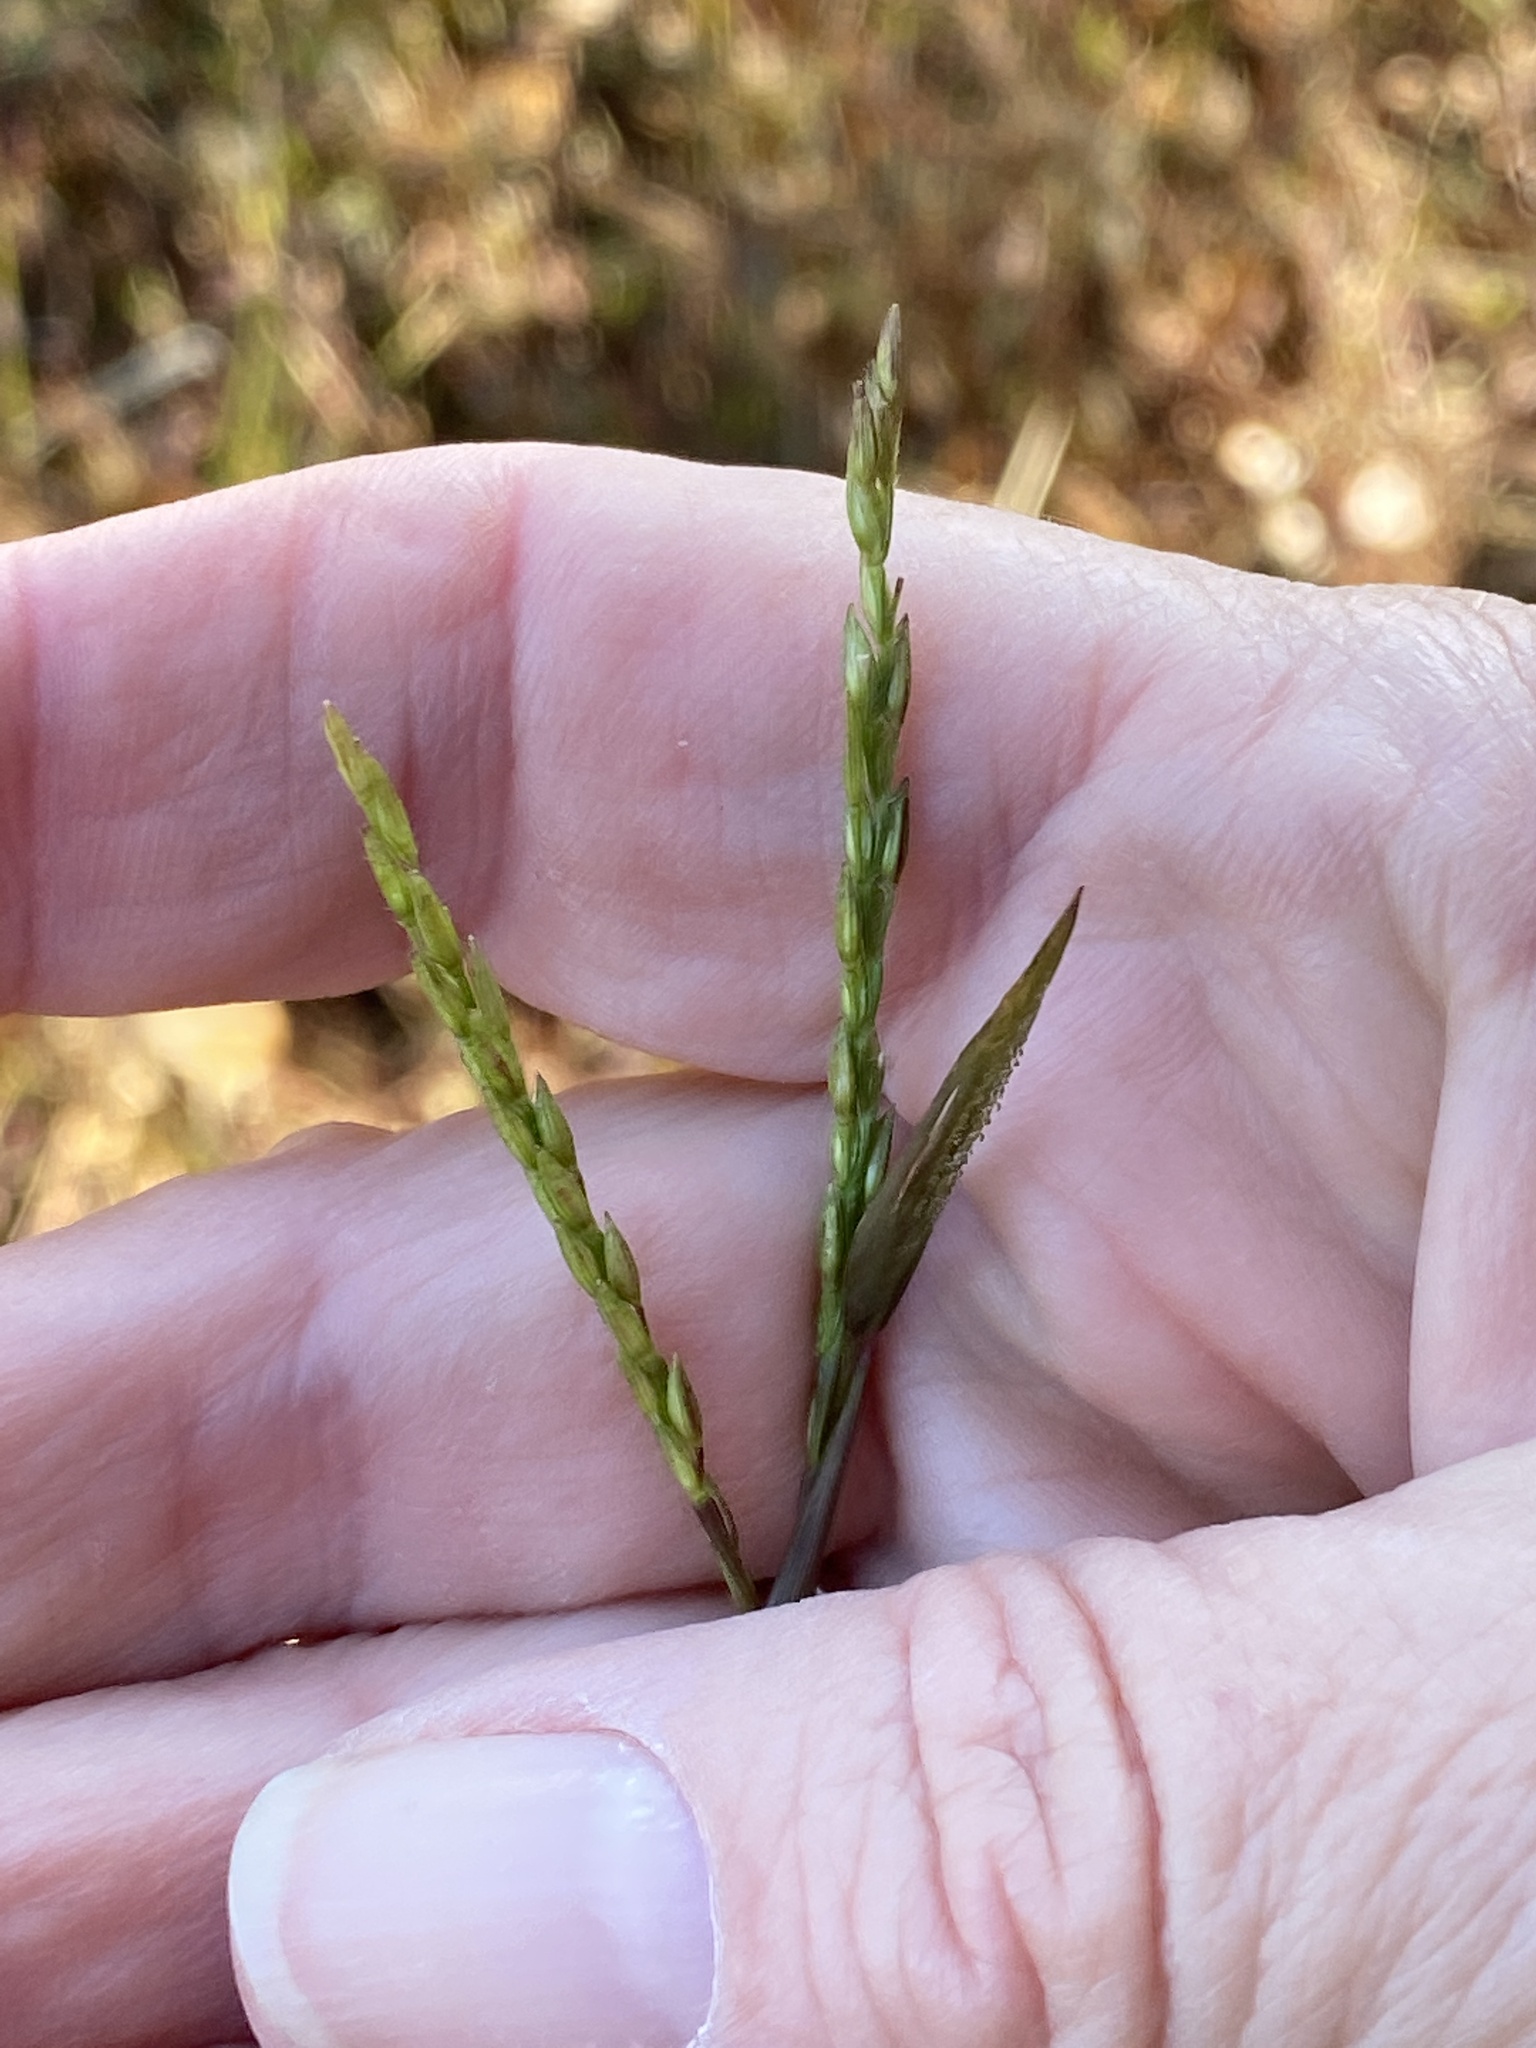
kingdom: Plantae
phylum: Tracheophyta
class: Liliopsida
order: Poales
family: Poaceae
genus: Microstegium
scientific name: Microstegium vimineum
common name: Japanese stiltgrass
